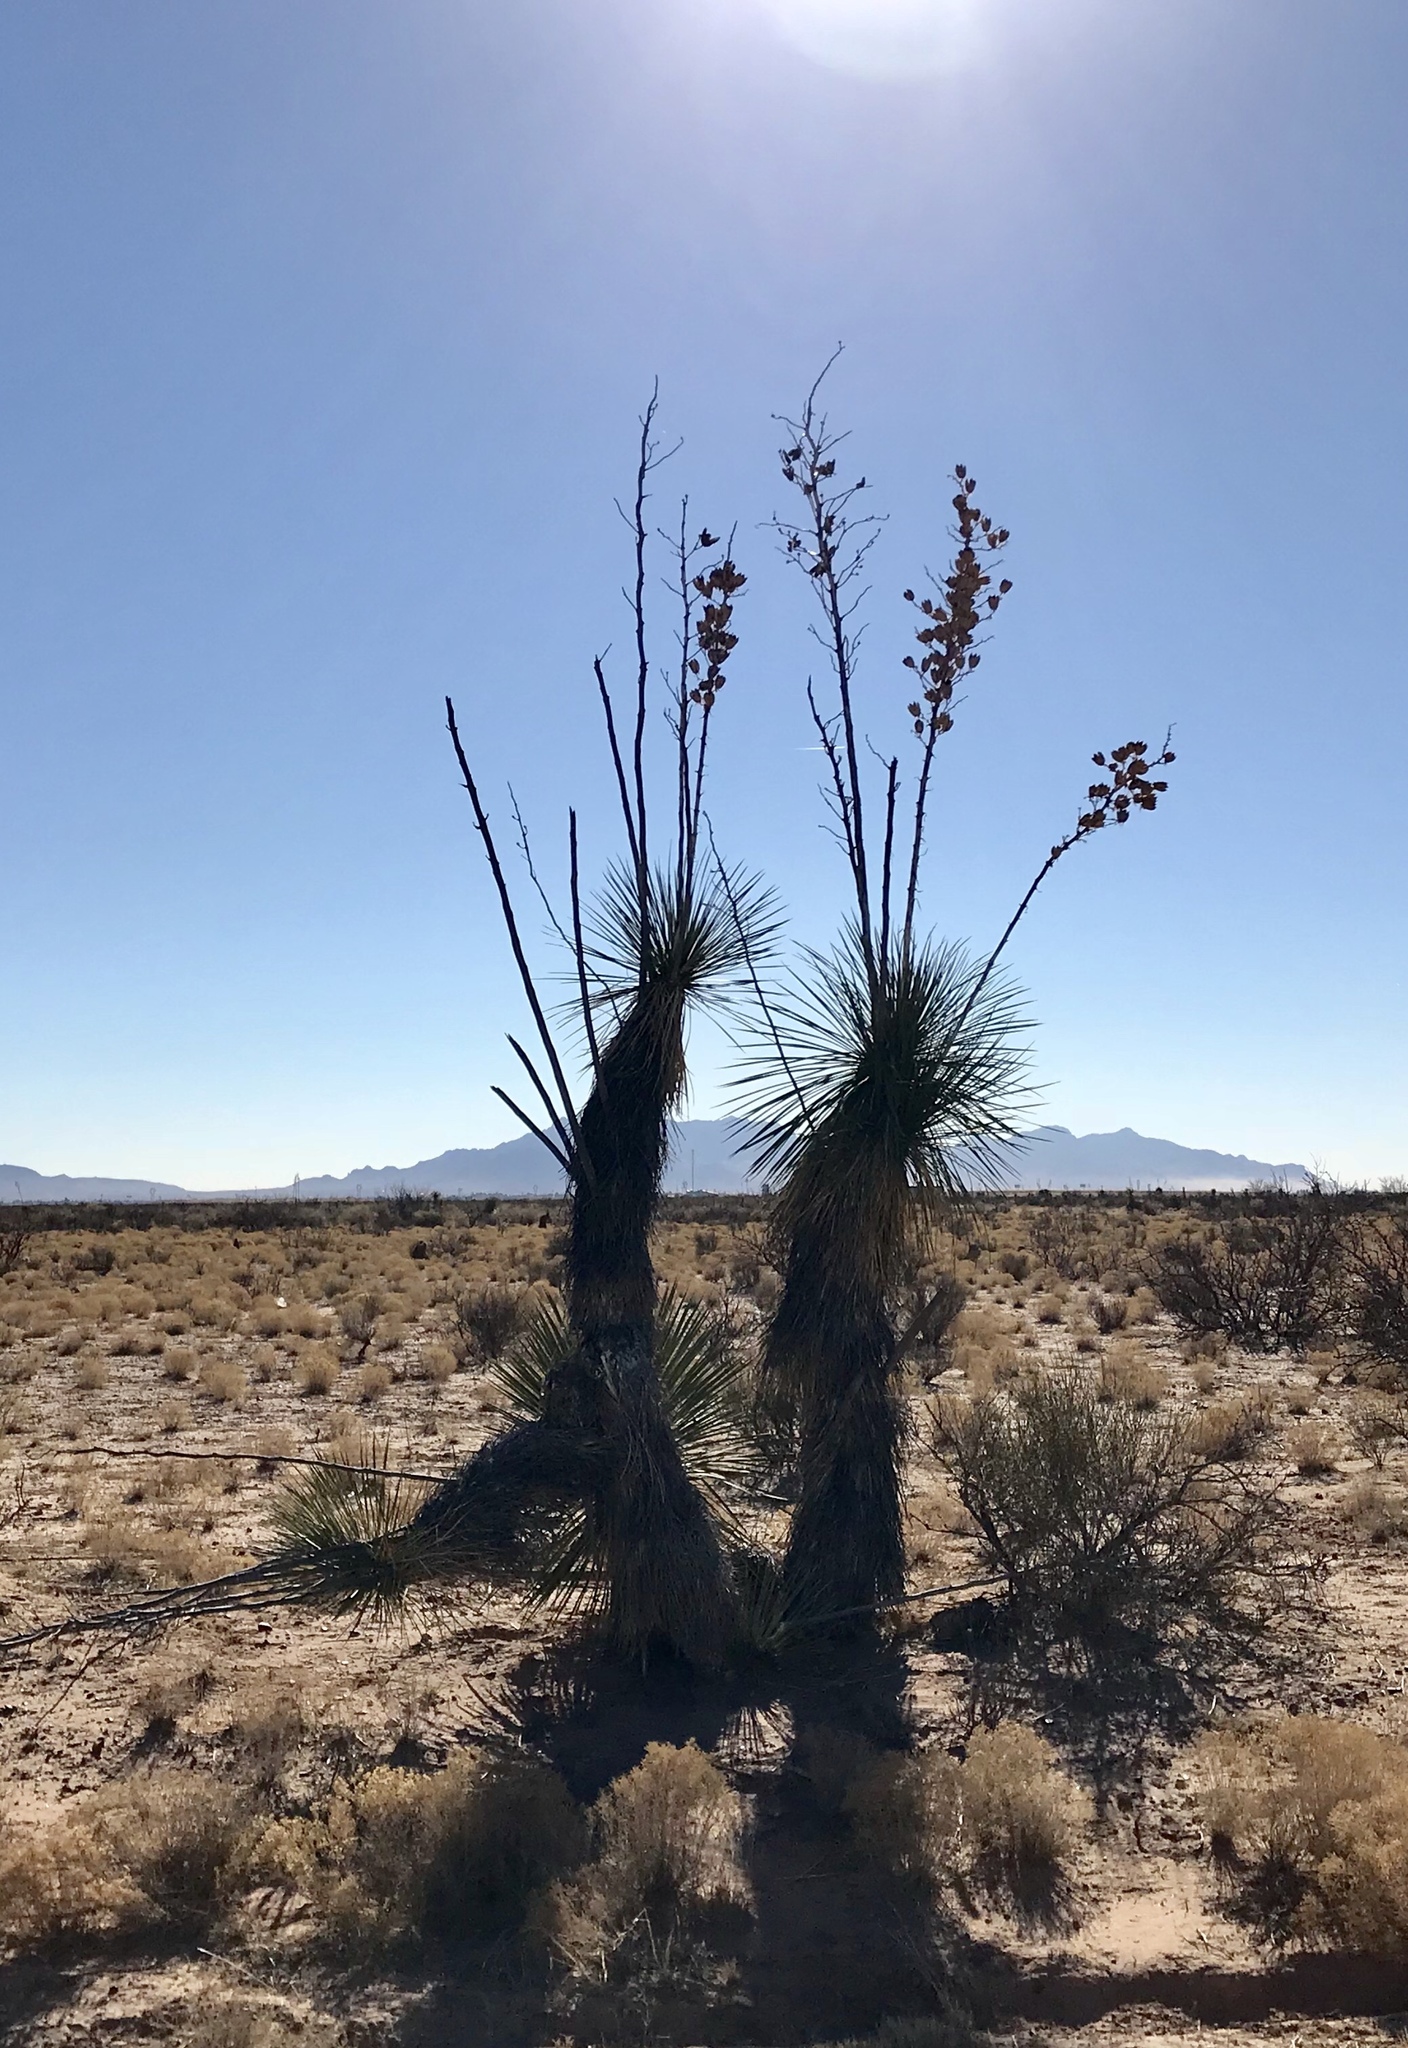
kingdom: Plantae
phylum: Tracheophyta
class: Liliopsida
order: Asparagales
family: Asparagaceae
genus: Yucca
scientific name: Yucca elata
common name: Palmella
